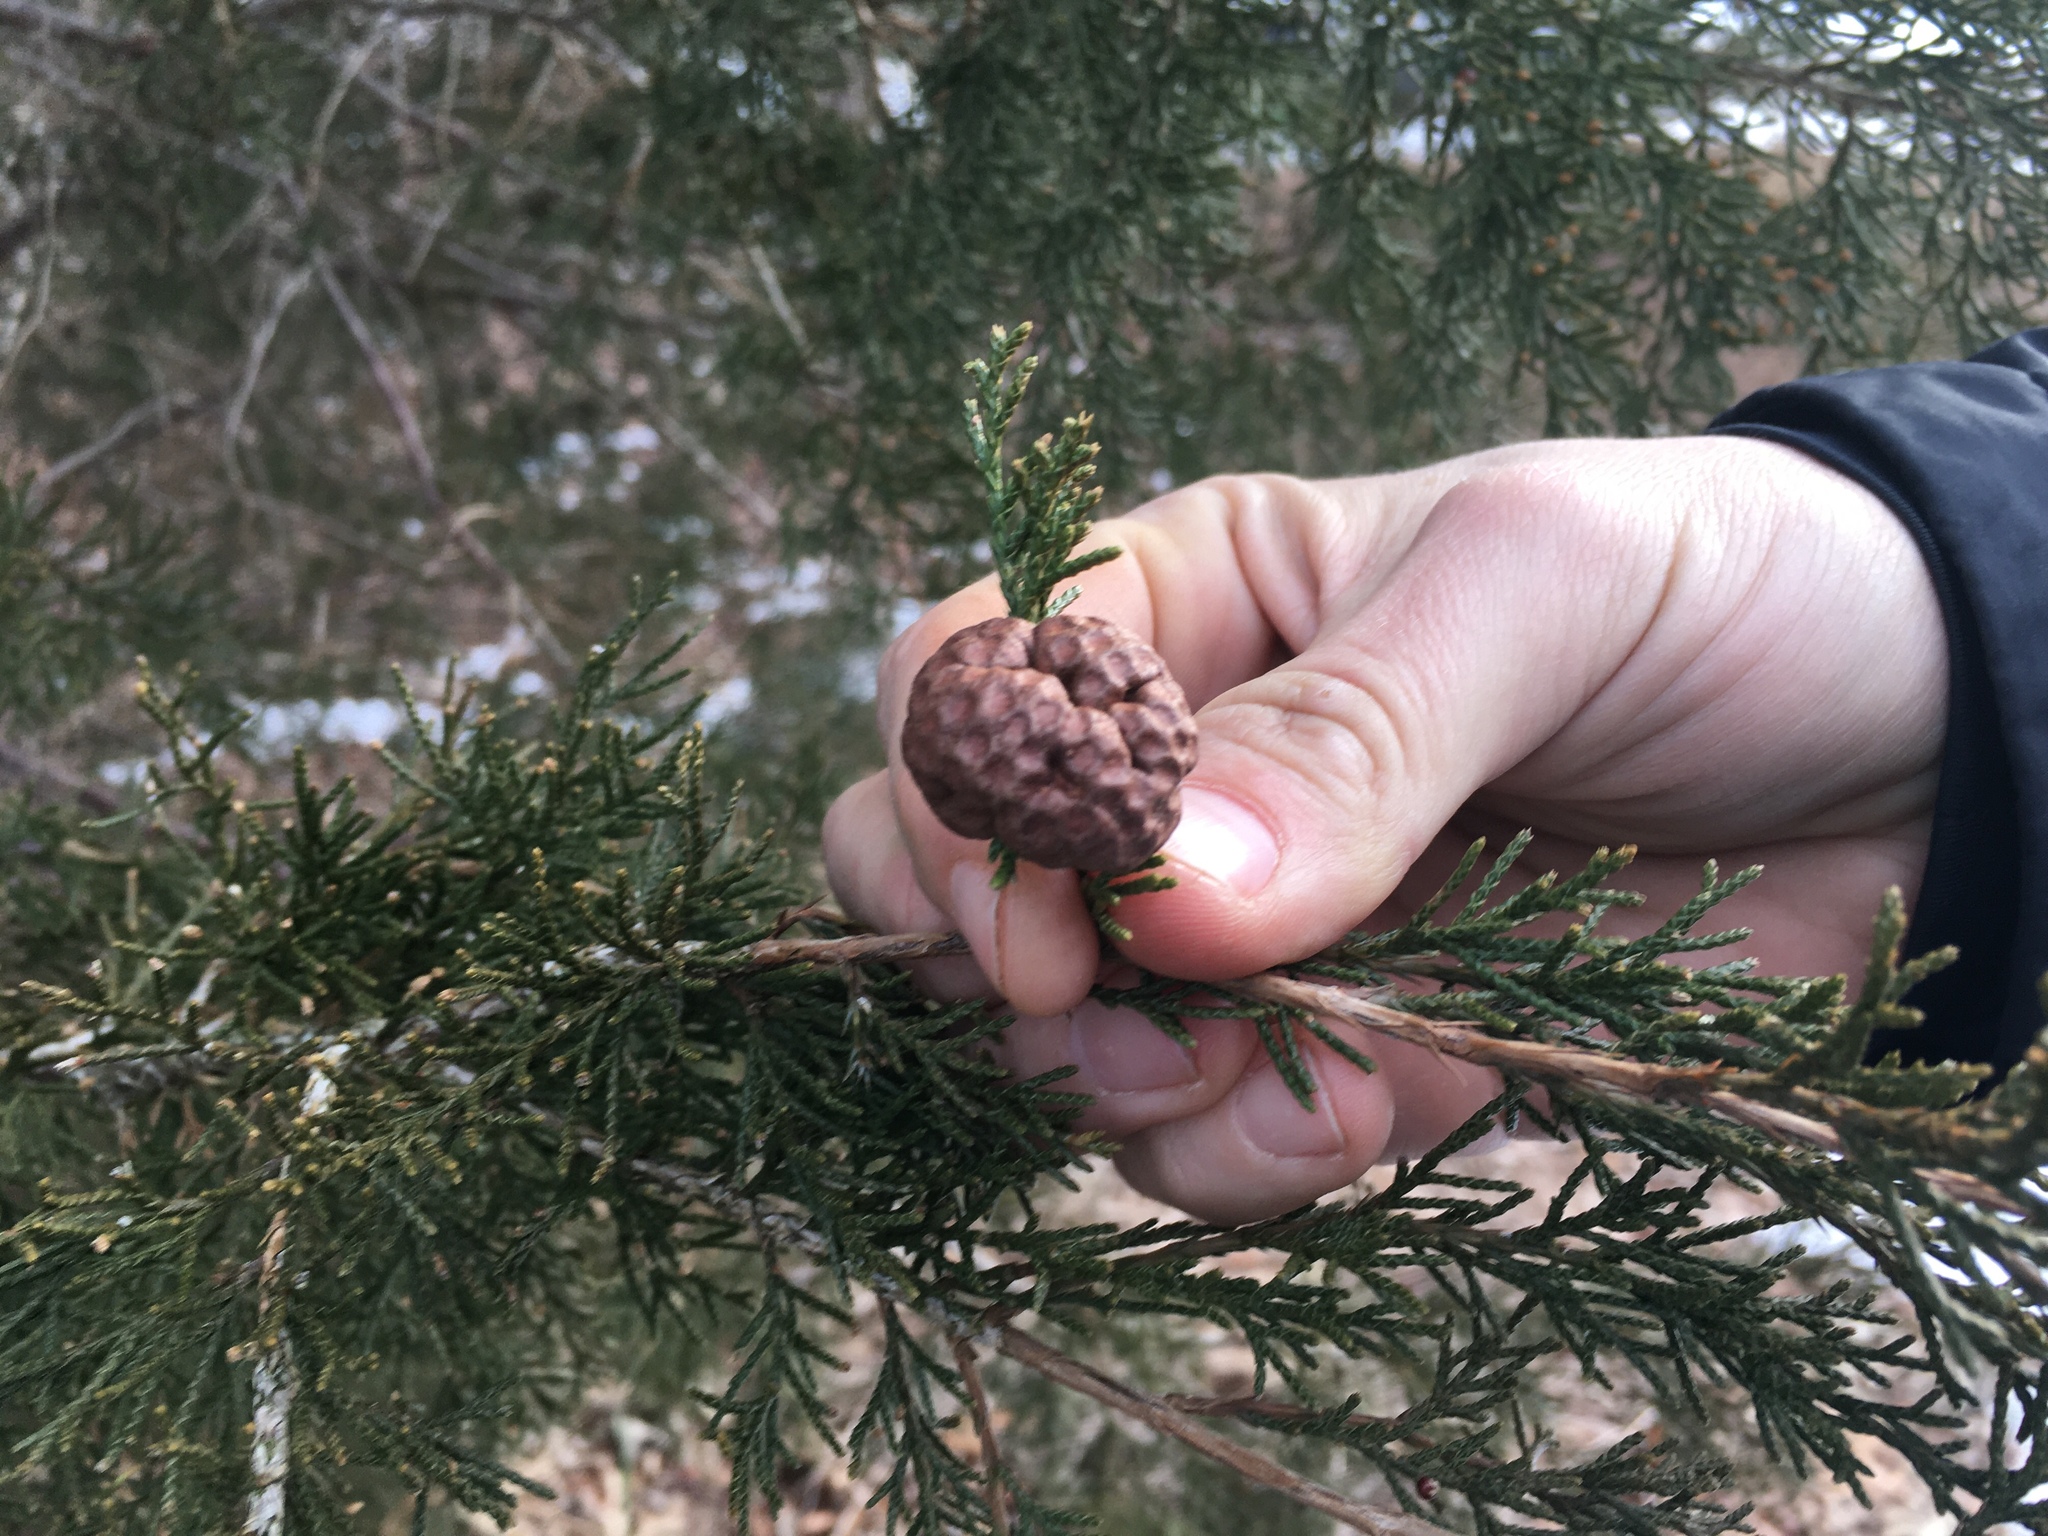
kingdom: Fungi
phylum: Basidiomycota
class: Pucciniomycetes
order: Pucciniales
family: Gymnosporangiaceae
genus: Gymnosporangium
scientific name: Gymnosporangium juniperi-virginianae
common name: Juniper-apple rust
